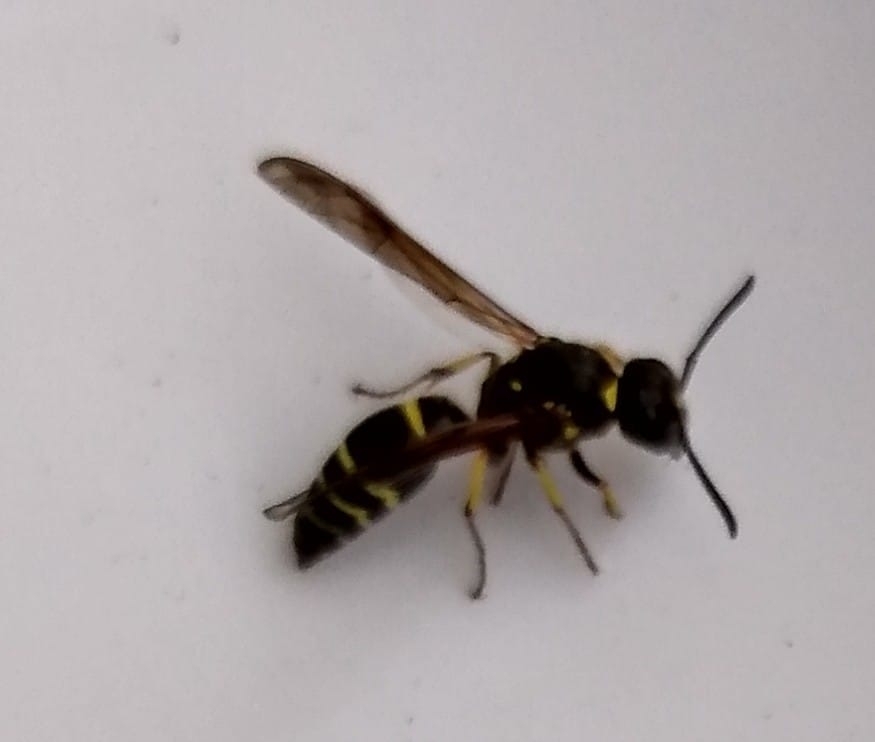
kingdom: Animalia
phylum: Arthropoda
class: Insecta
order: Hymenoptera
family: Vespidae
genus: Ancistrocerus
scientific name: Ancistrocerus
